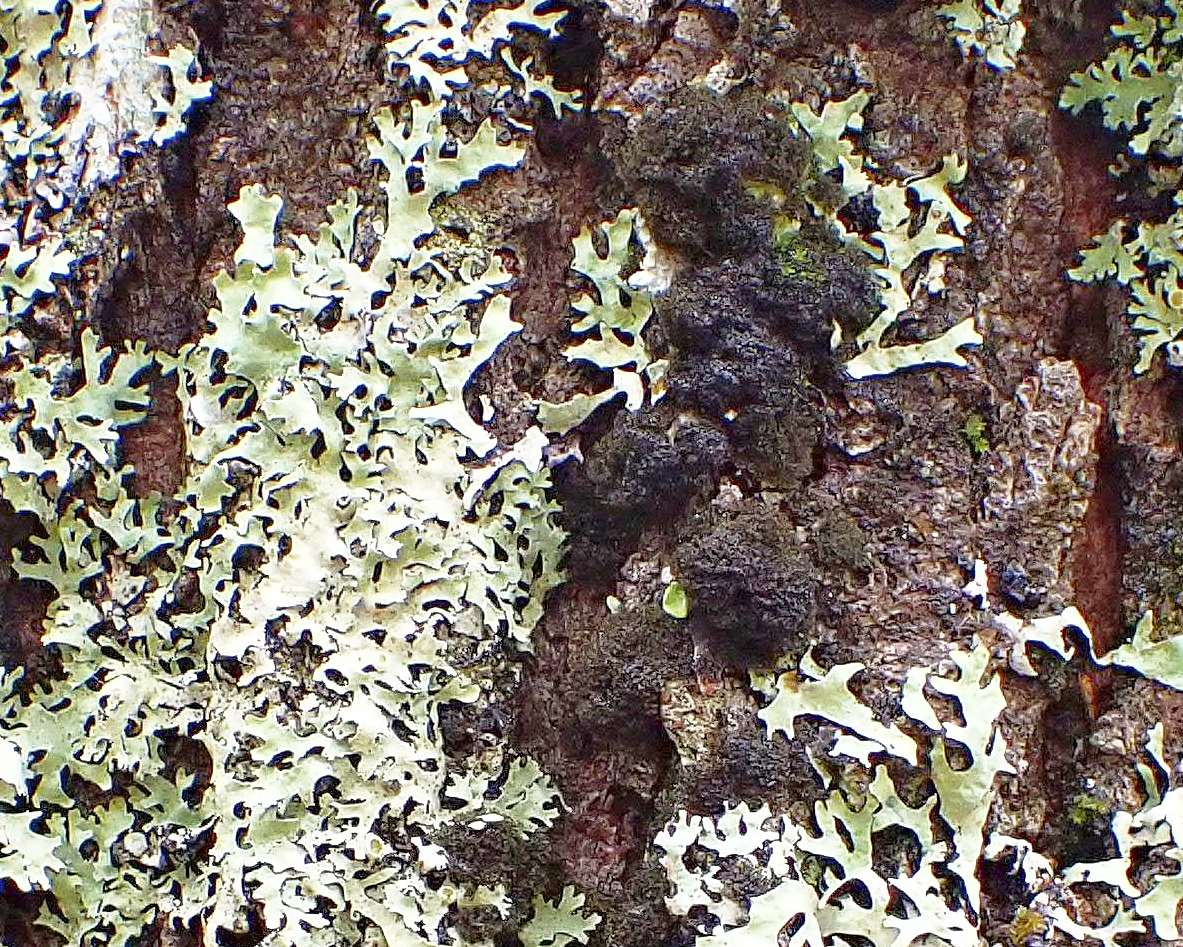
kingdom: Fungi
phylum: Ascomycota
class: Lecanoromycetes
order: Peltigerales
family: Pannariaceae
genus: Leptogidium
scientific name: Leptogidium intricatulum
